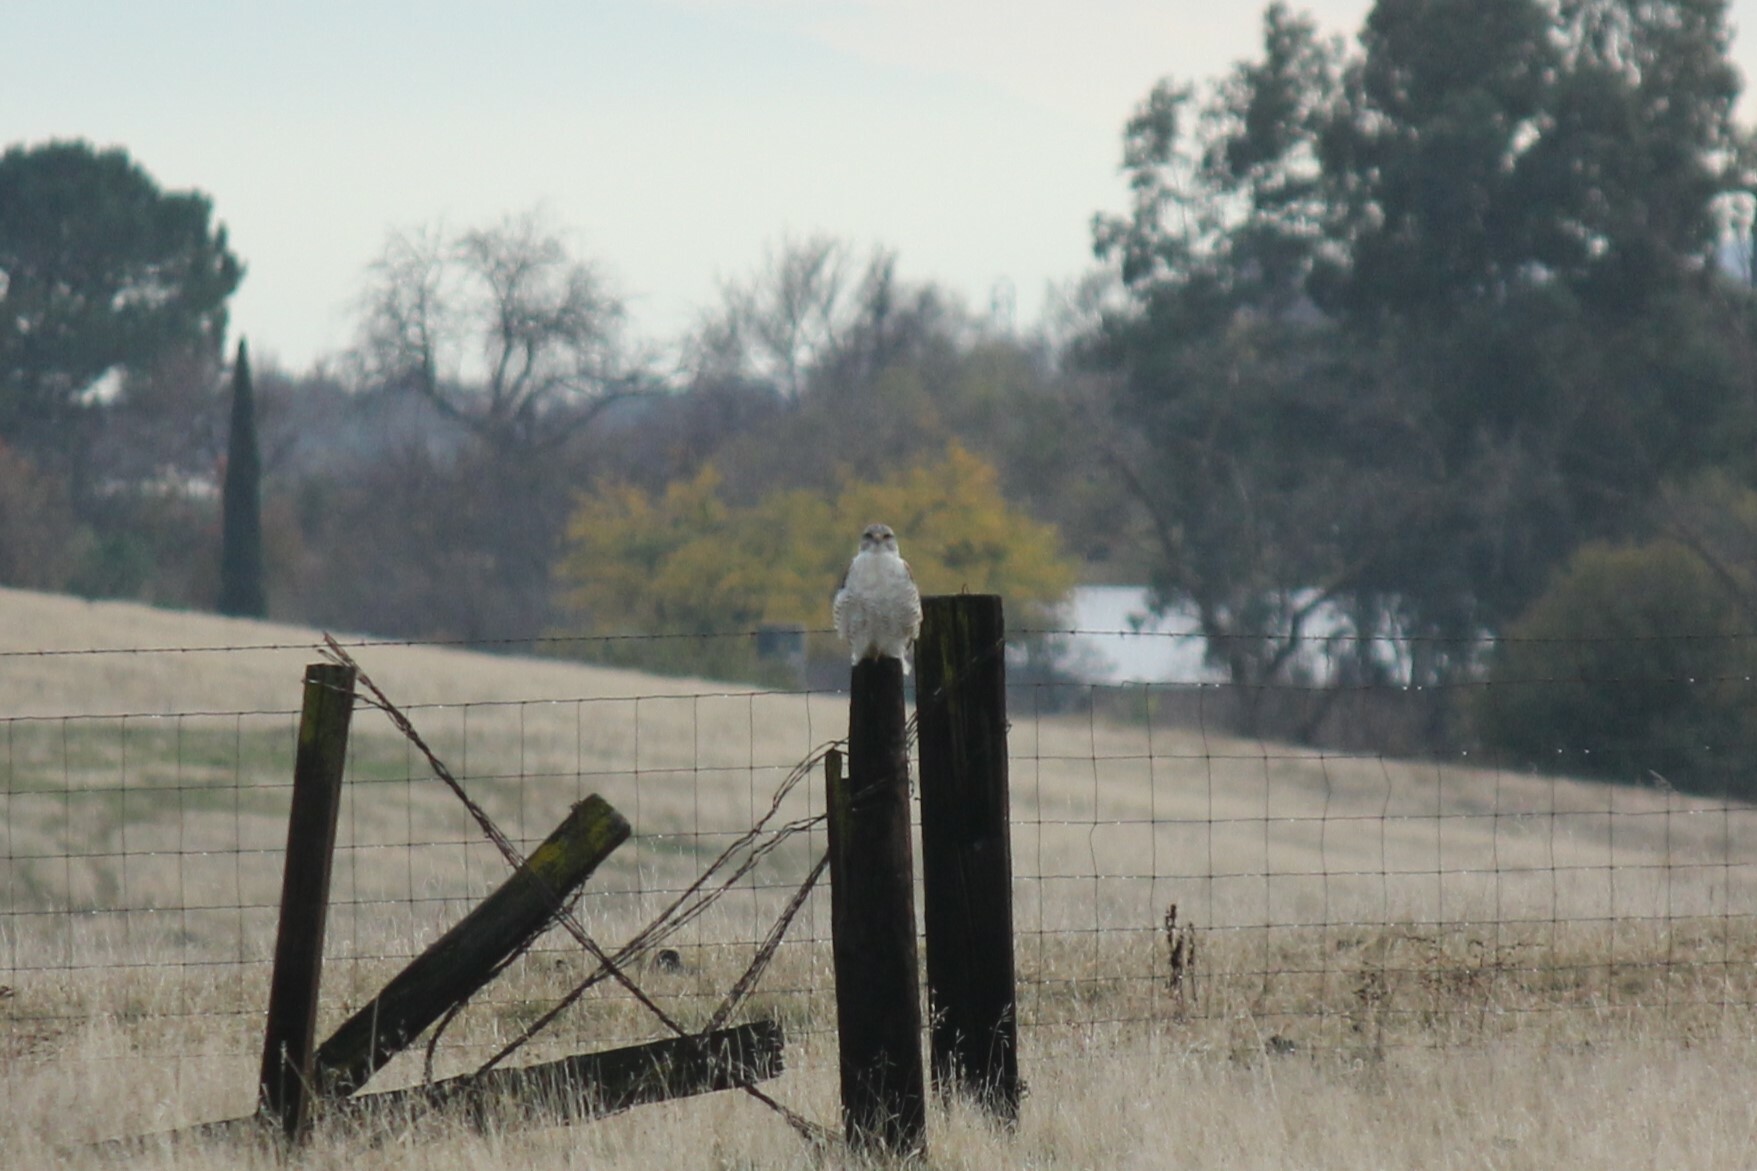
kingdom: Animalia
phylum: Chordata
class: Aves
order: Accipitriformes
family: Accipitridae
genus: Buteo
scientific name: Buteo regalis
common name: Ferruginous hawk
